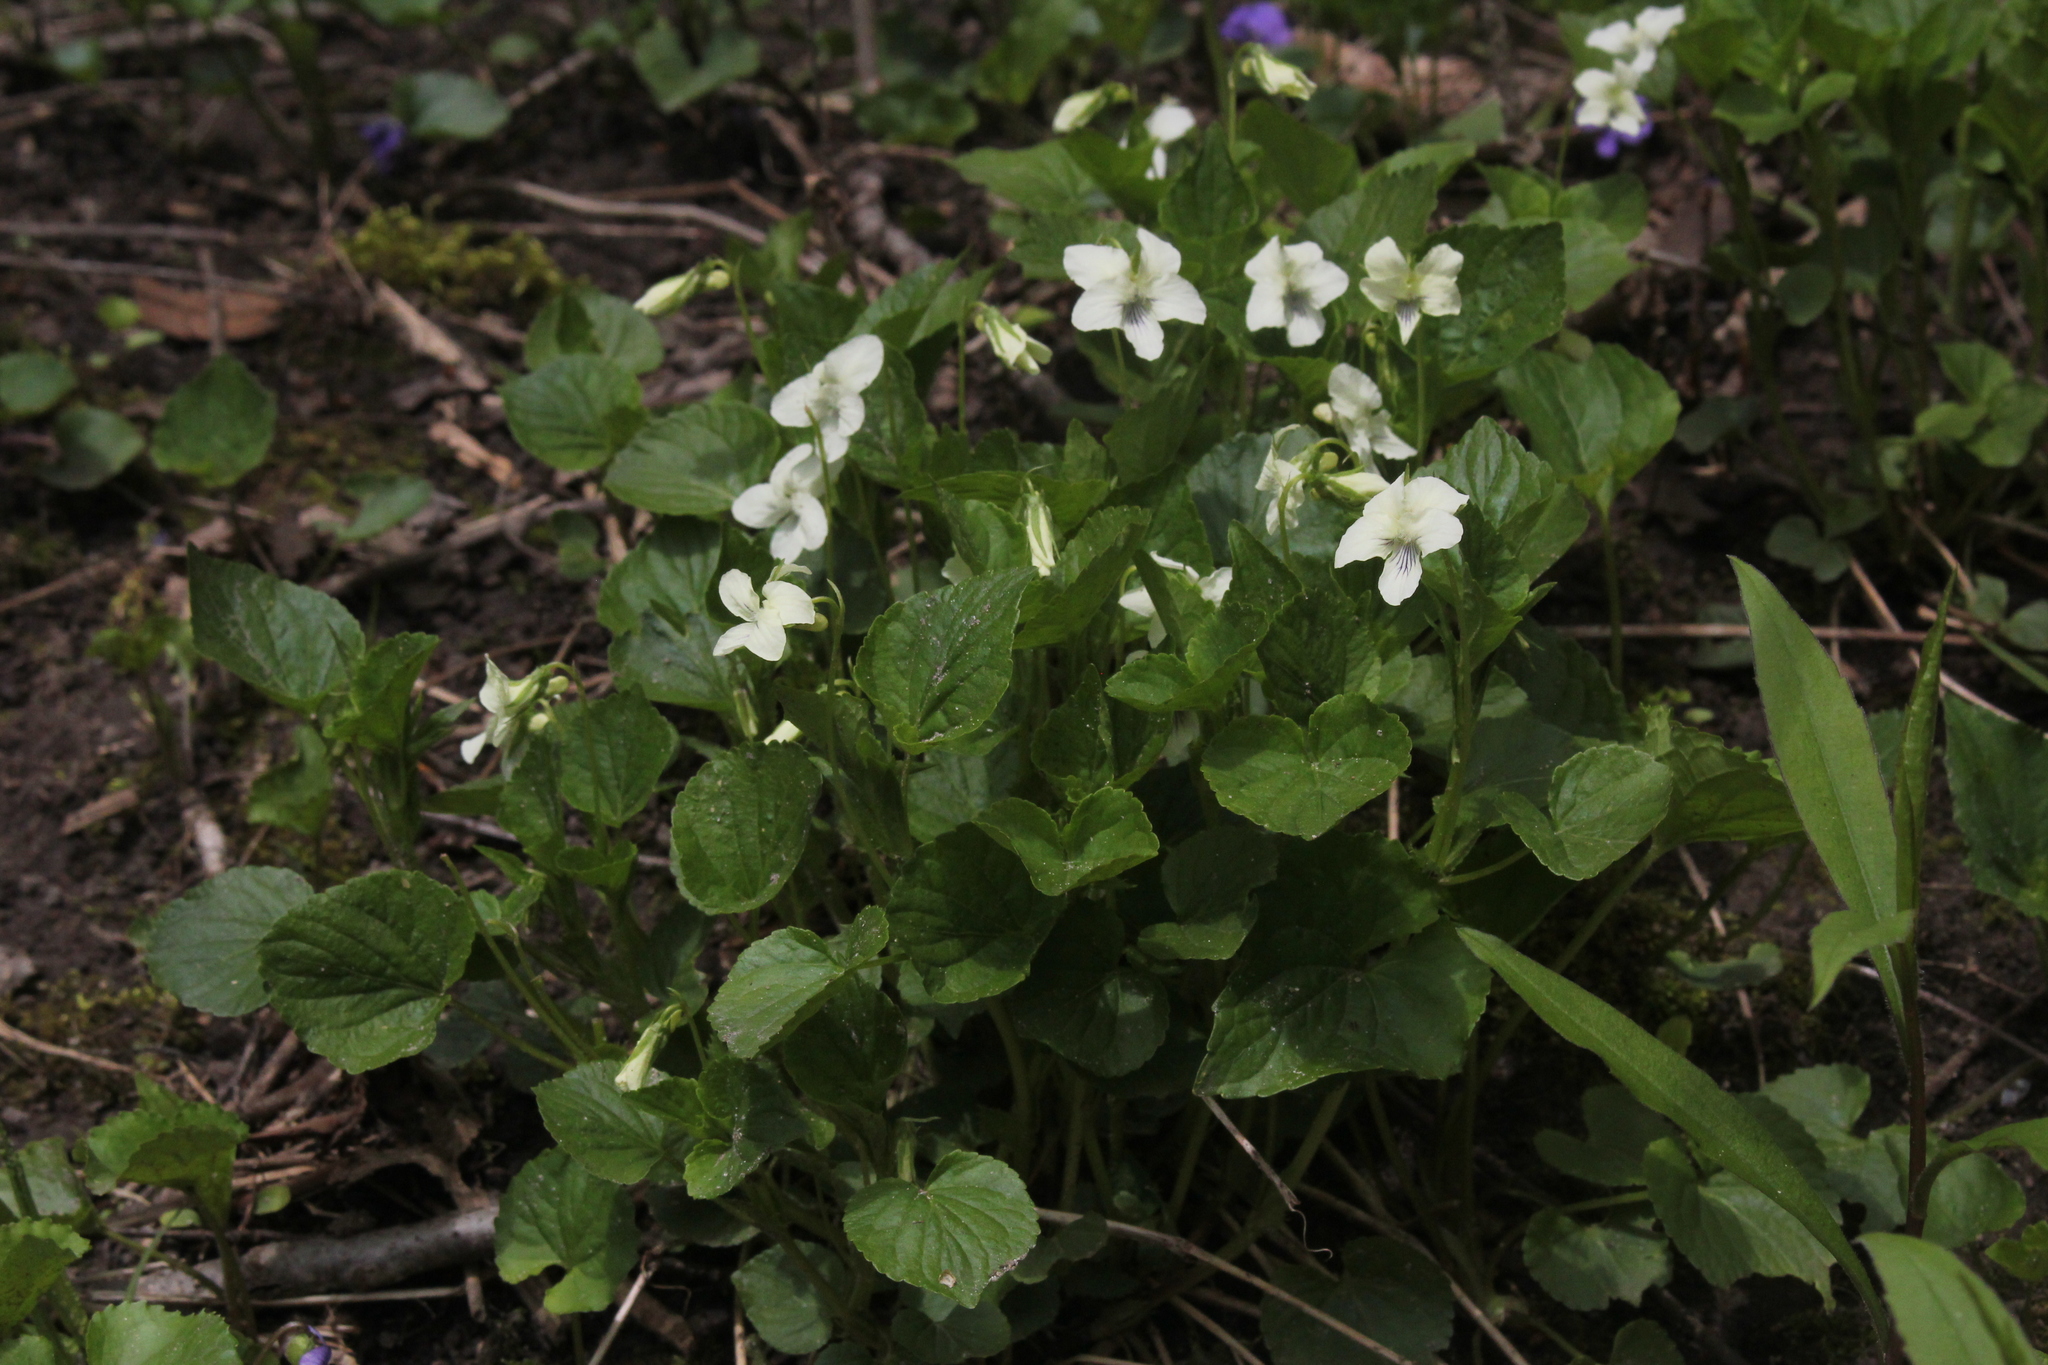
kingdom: Plantae
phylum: Tracheophyta
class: Magnoliopsida
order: Malpighiales
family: Violaceae
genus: Viola
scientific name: Viola striata
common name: Cream violet
